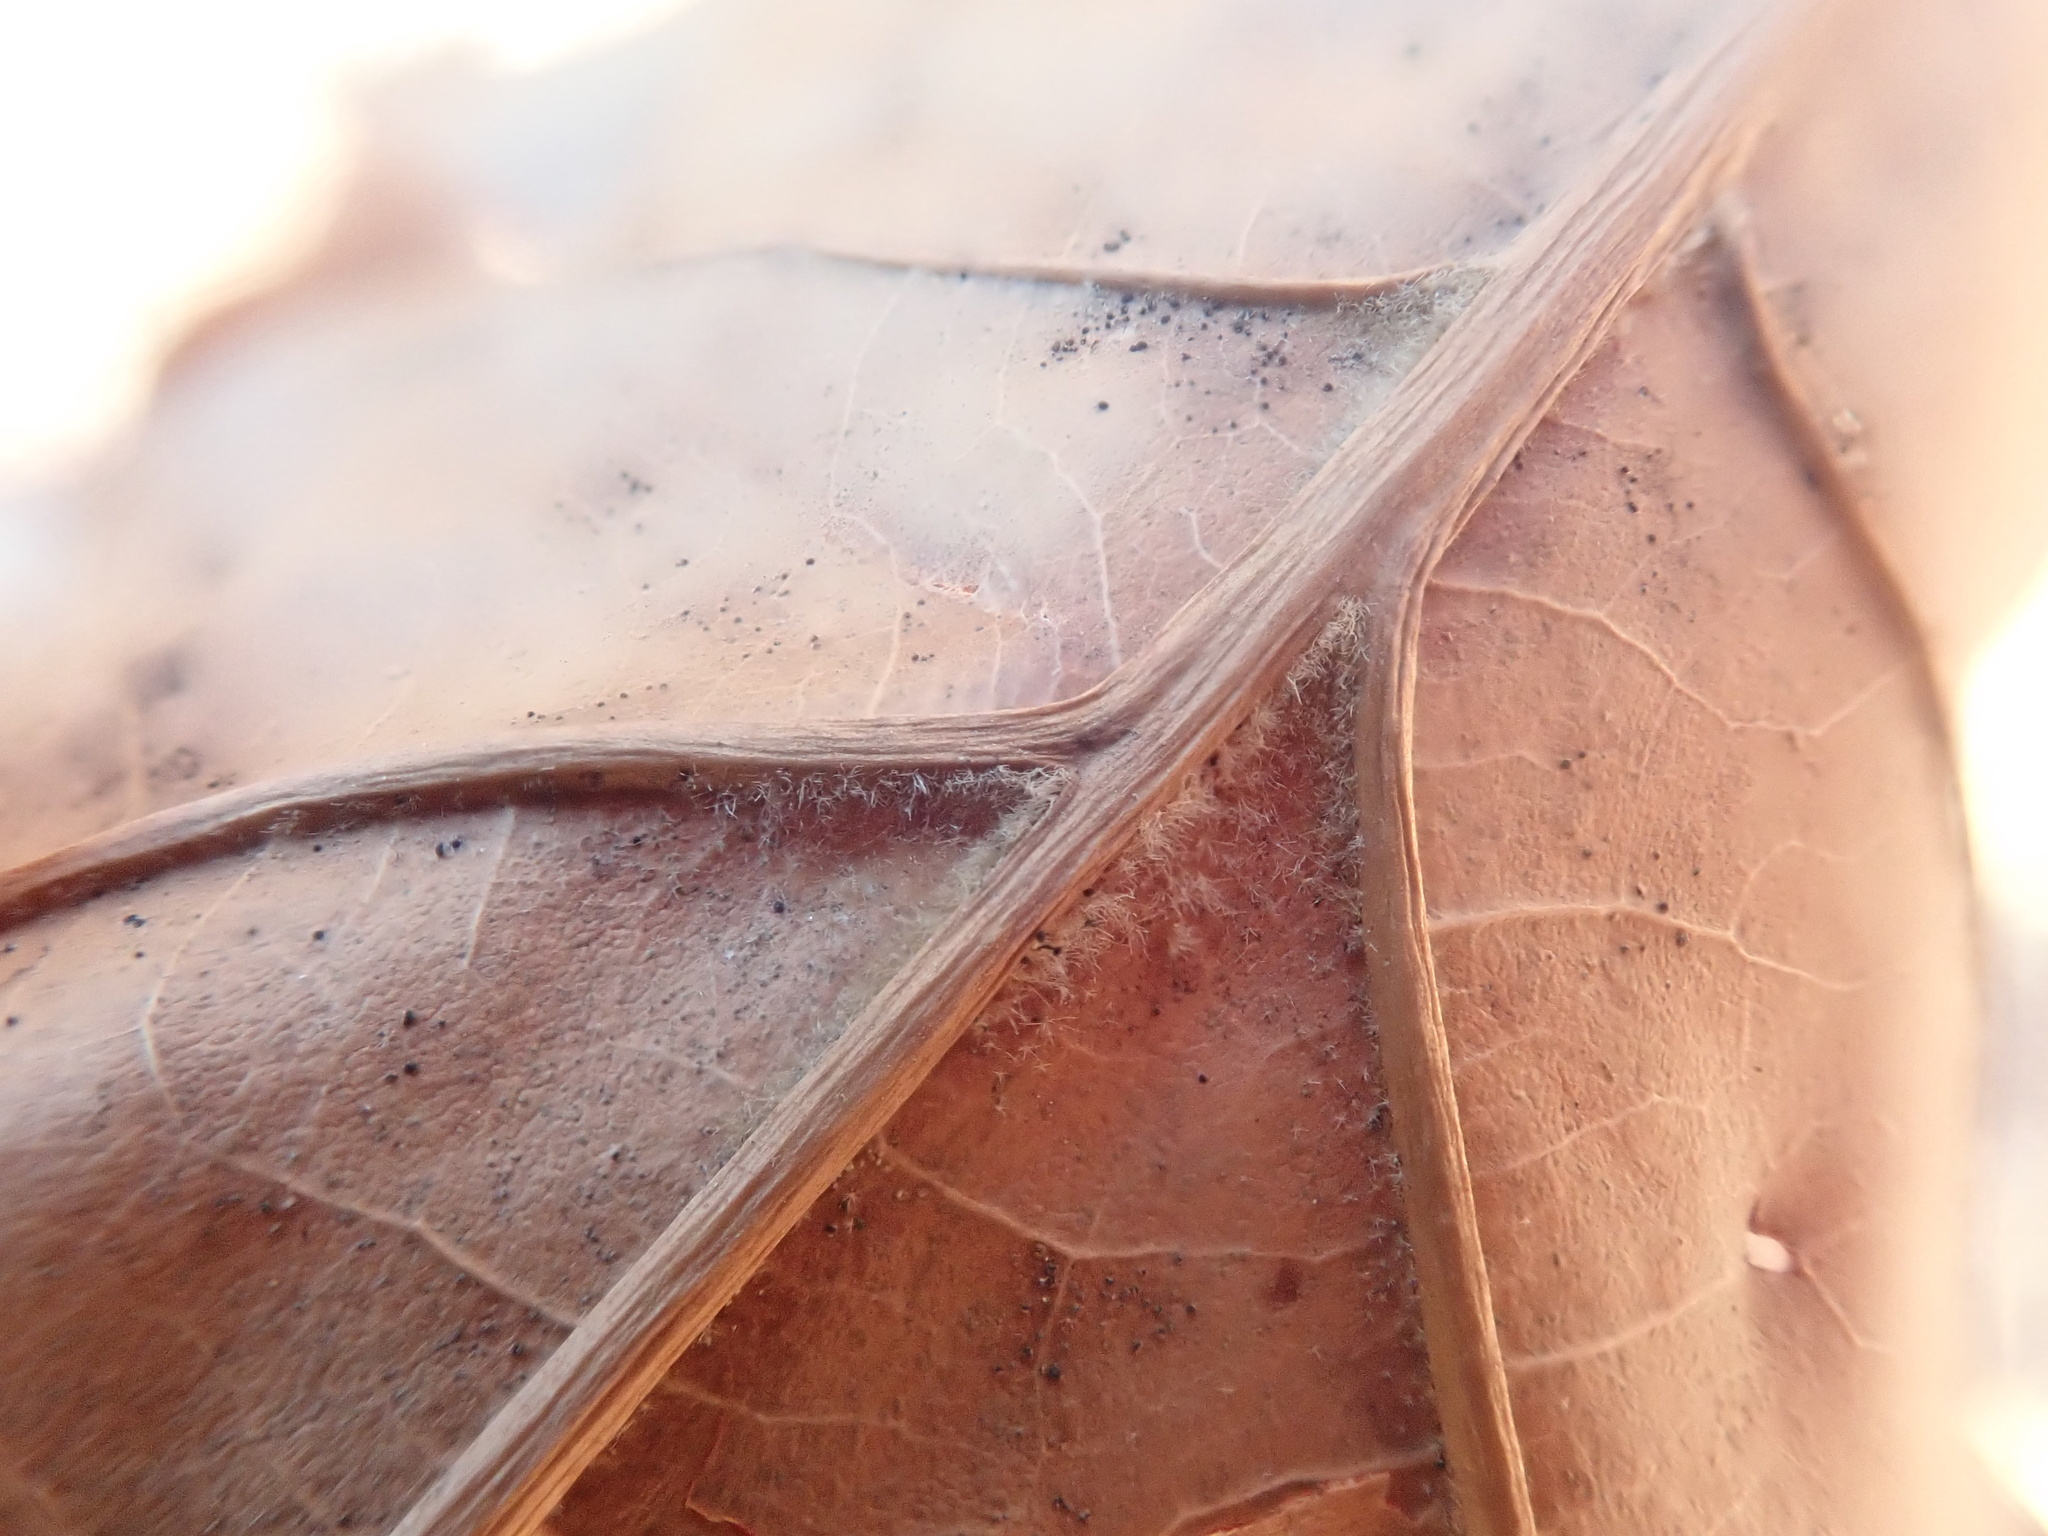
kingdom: Plantae
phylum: Tracheophyta
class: Magnoliopsida
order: Fagales
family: Fagaceae
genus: Quercus
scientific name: Quercus velutina
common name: Black oak
